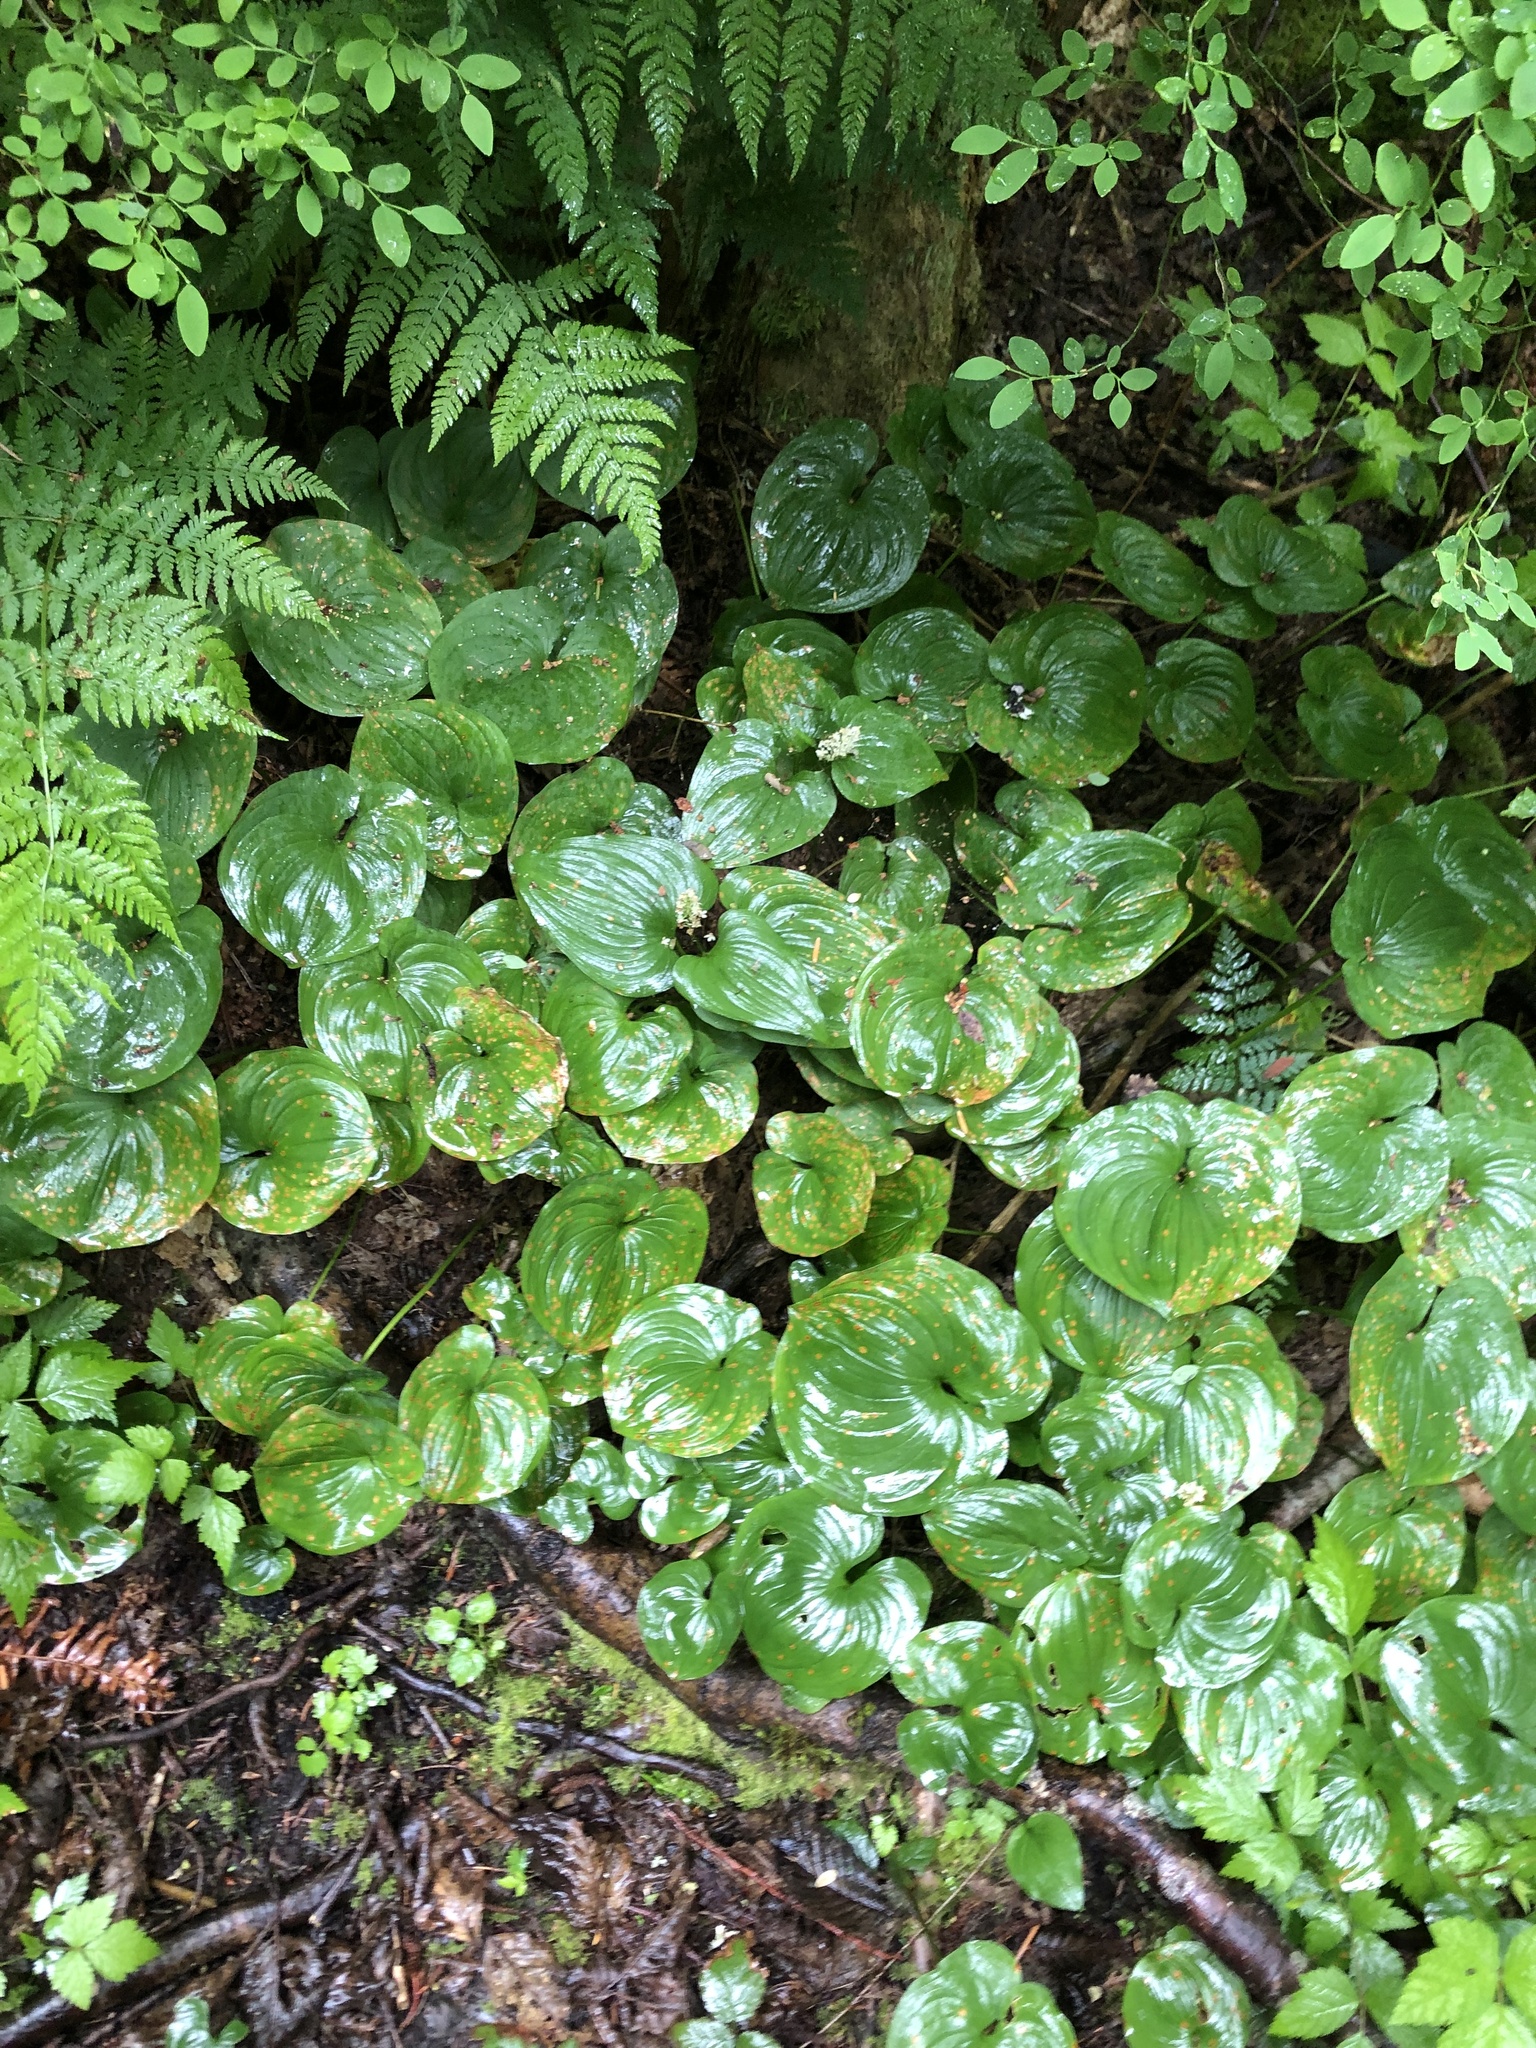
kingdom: Plantae
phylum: Tracheophyta
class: Liliopsida
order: Asparagales
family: Asparagaceae
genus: Maianthemum
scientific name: Maianthemum dilatatum
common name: False lily-of-the-valley
